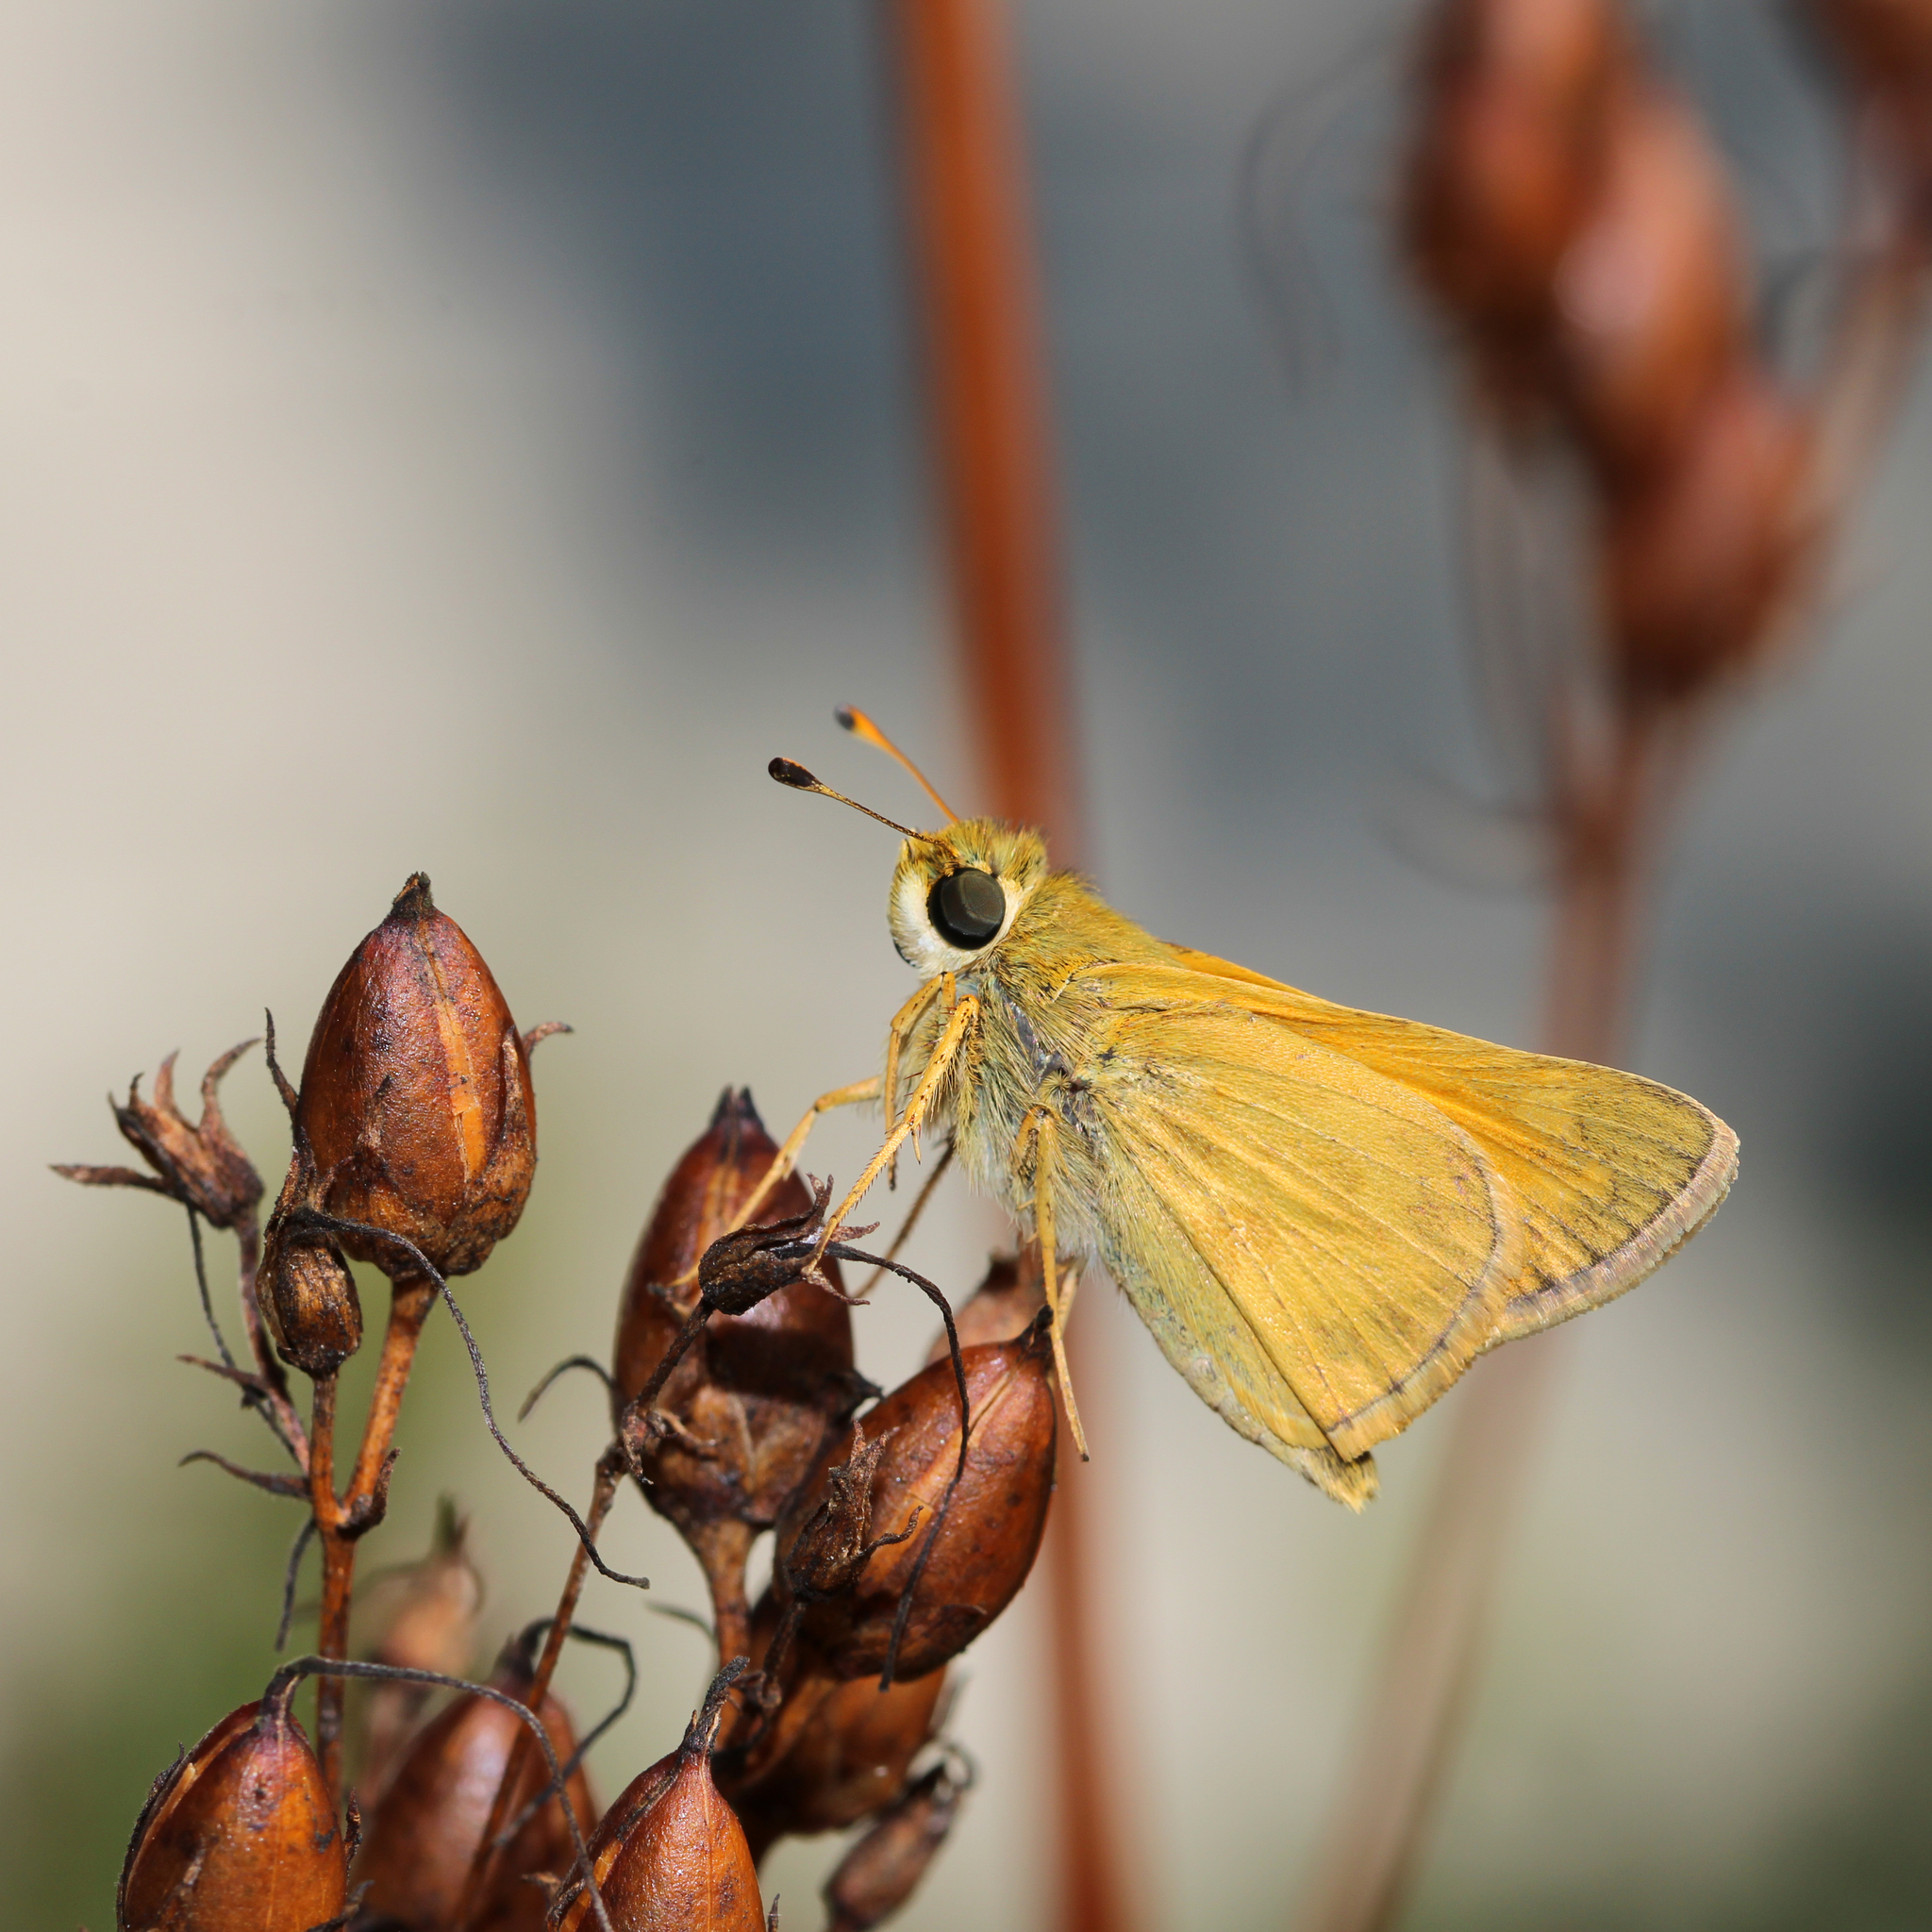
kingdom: Animalia
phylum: Arthropoda
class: Insecta
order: Lepidoptera
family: Hesperiidae
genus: Atalopedes
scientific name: Atalopedes
